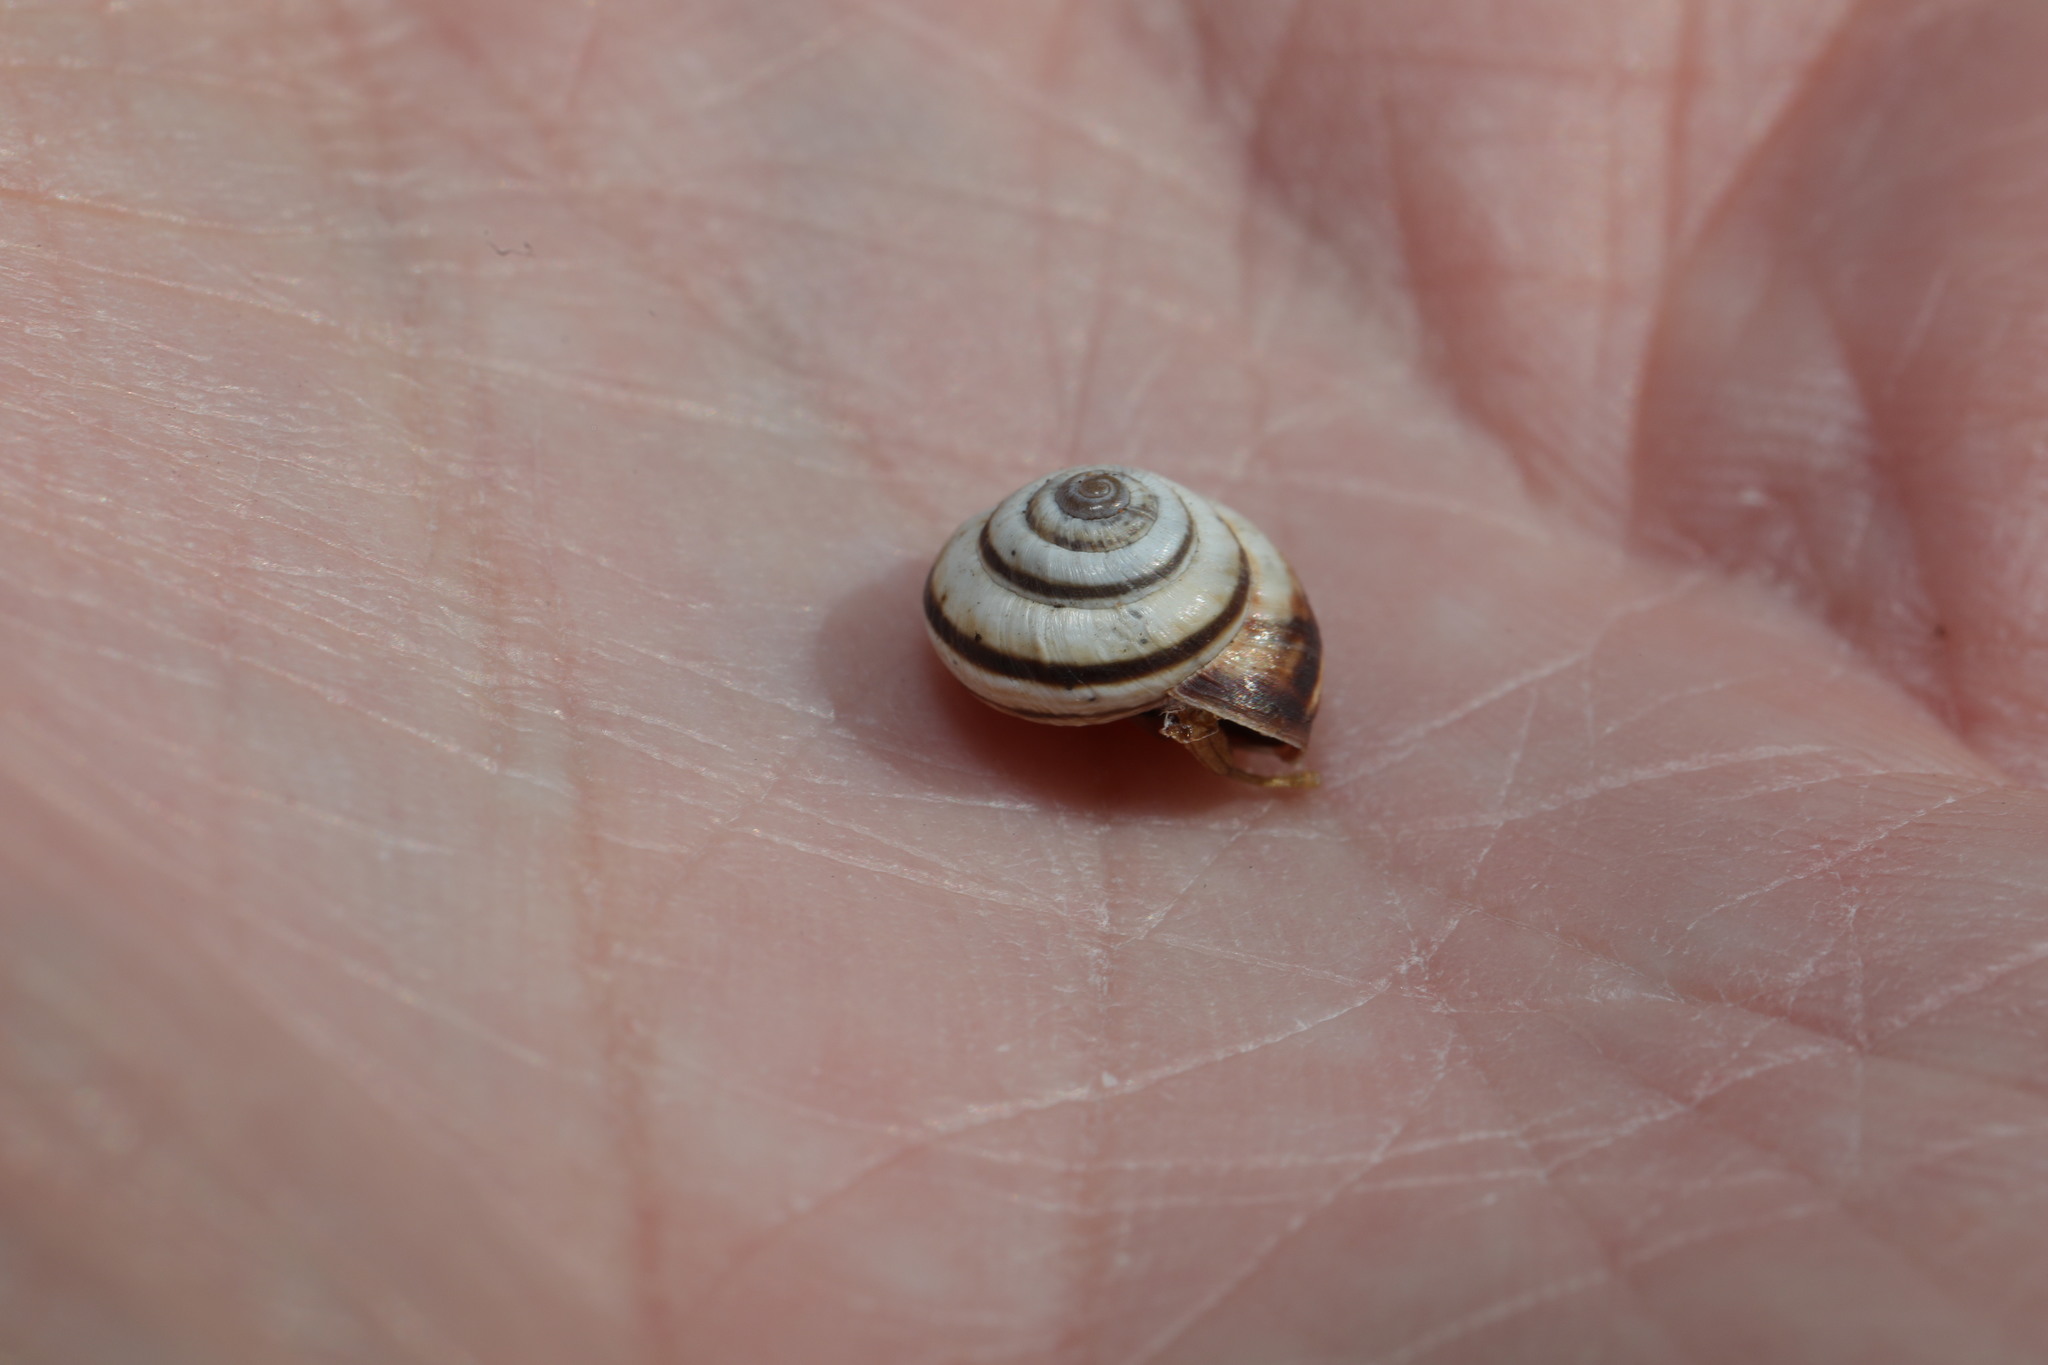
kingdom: Animalia
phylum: Mollusca
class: Gastropoda
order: Stylommatophora
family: Geomitridae
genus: Cernuella
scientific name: Cernuella virgata
